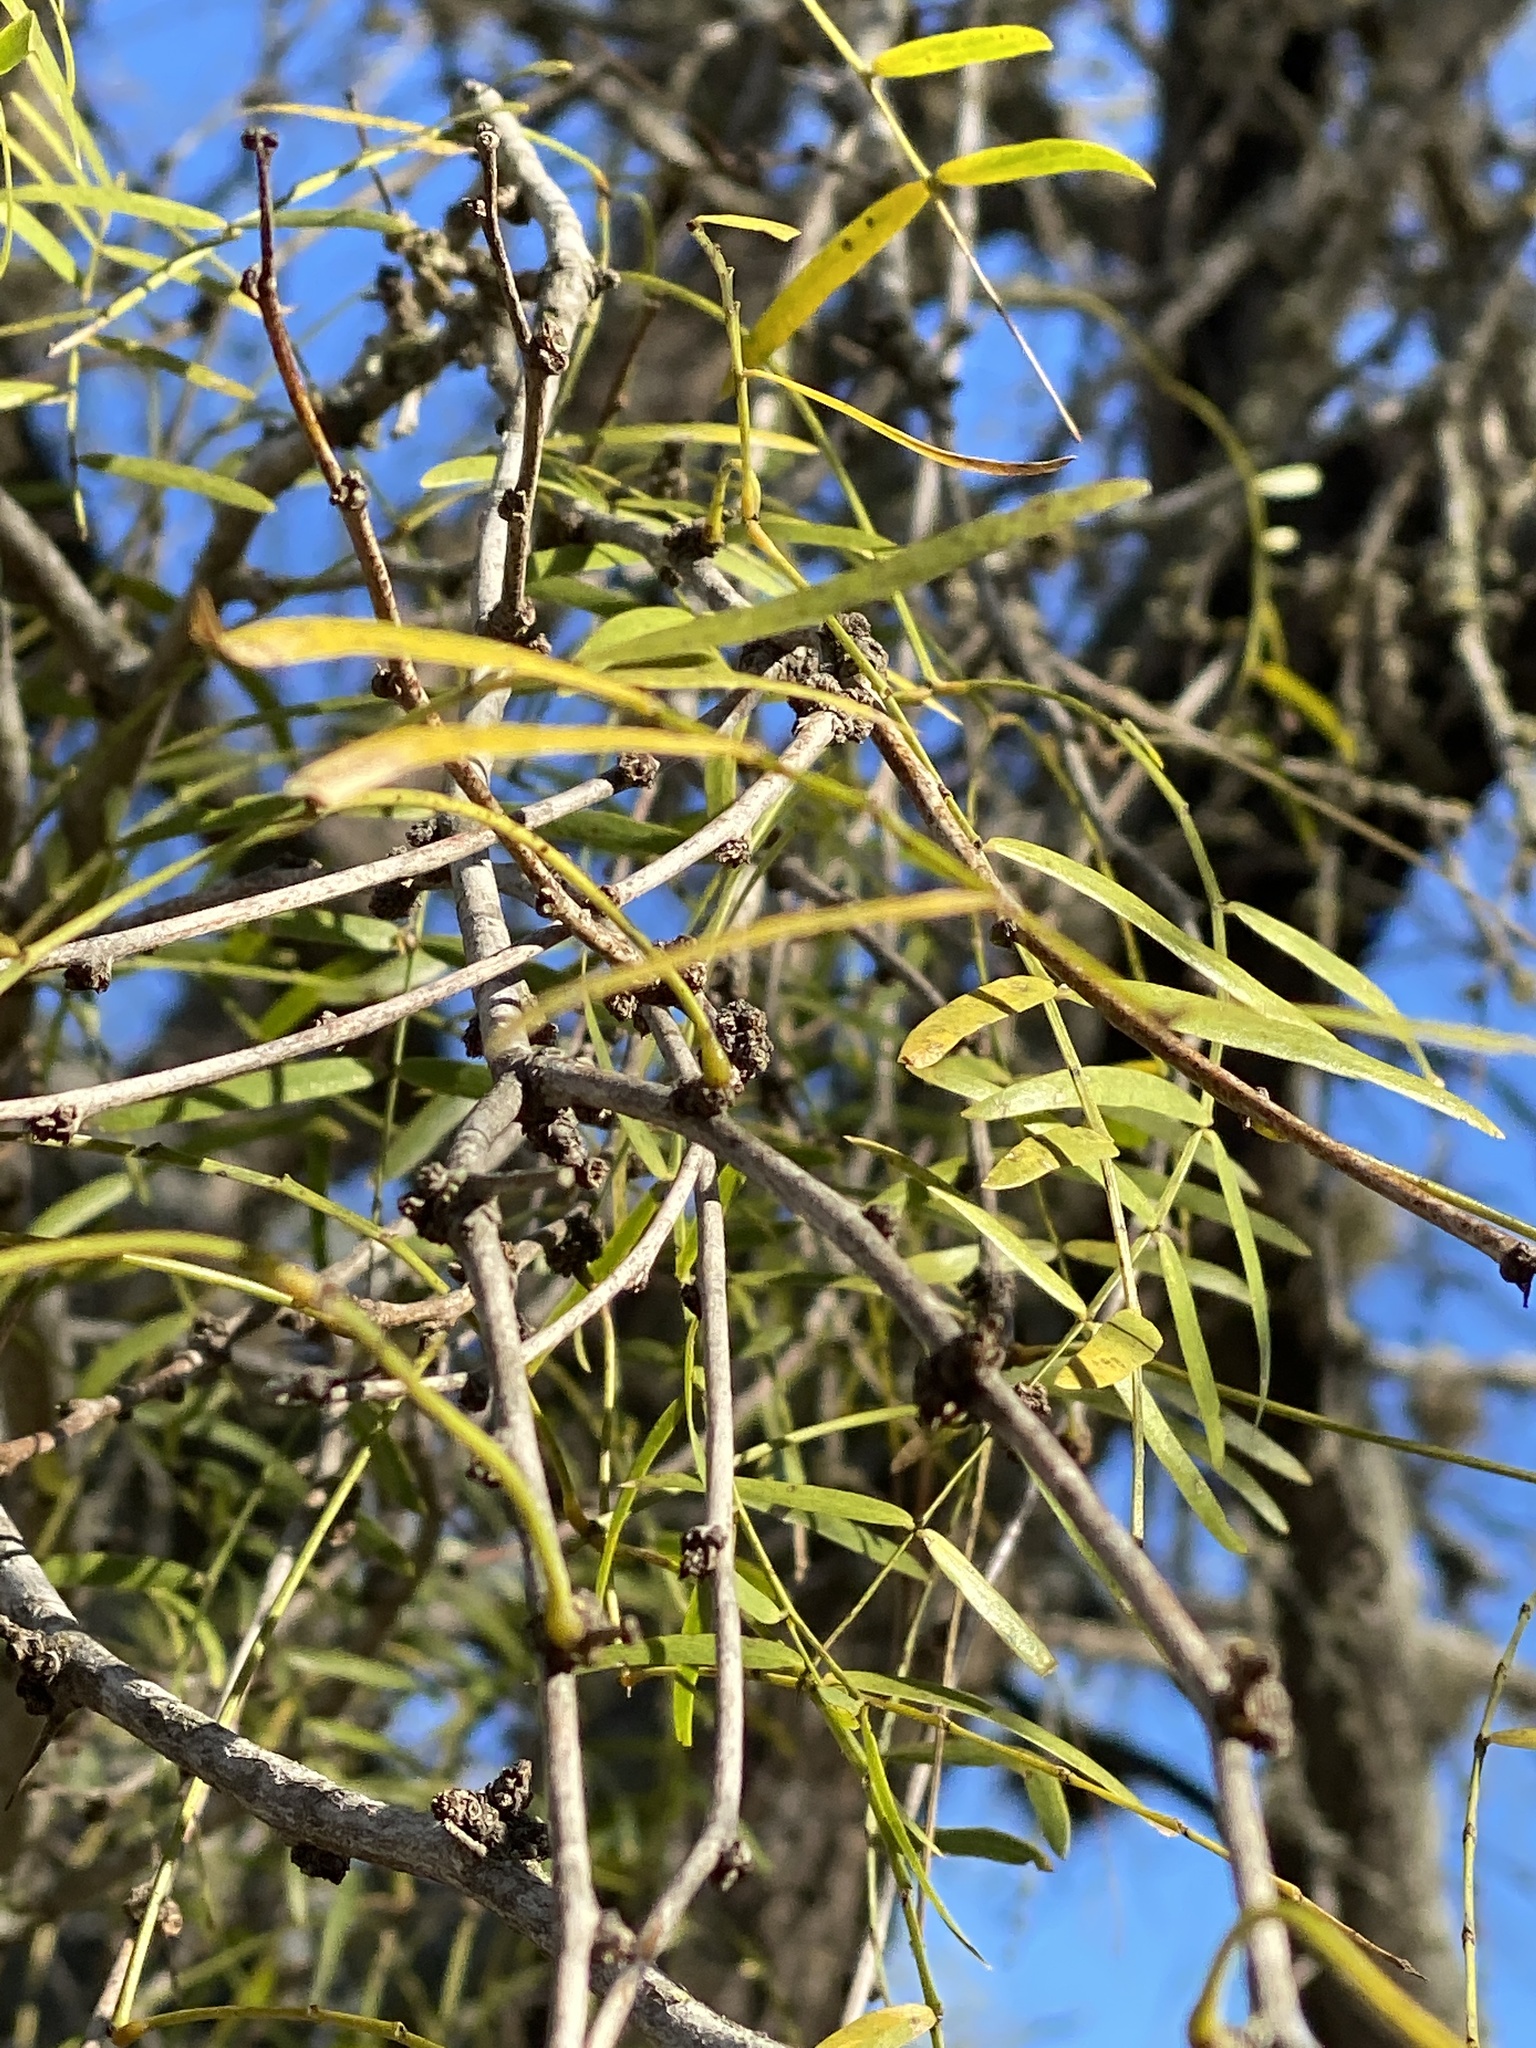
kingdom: Plantae
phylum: Tracheophyta
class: Magnoliopsida
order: Fabales
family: Fabaceae
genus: Prosopis
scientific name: Prosopis glandulosa
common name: Honey mesquite
